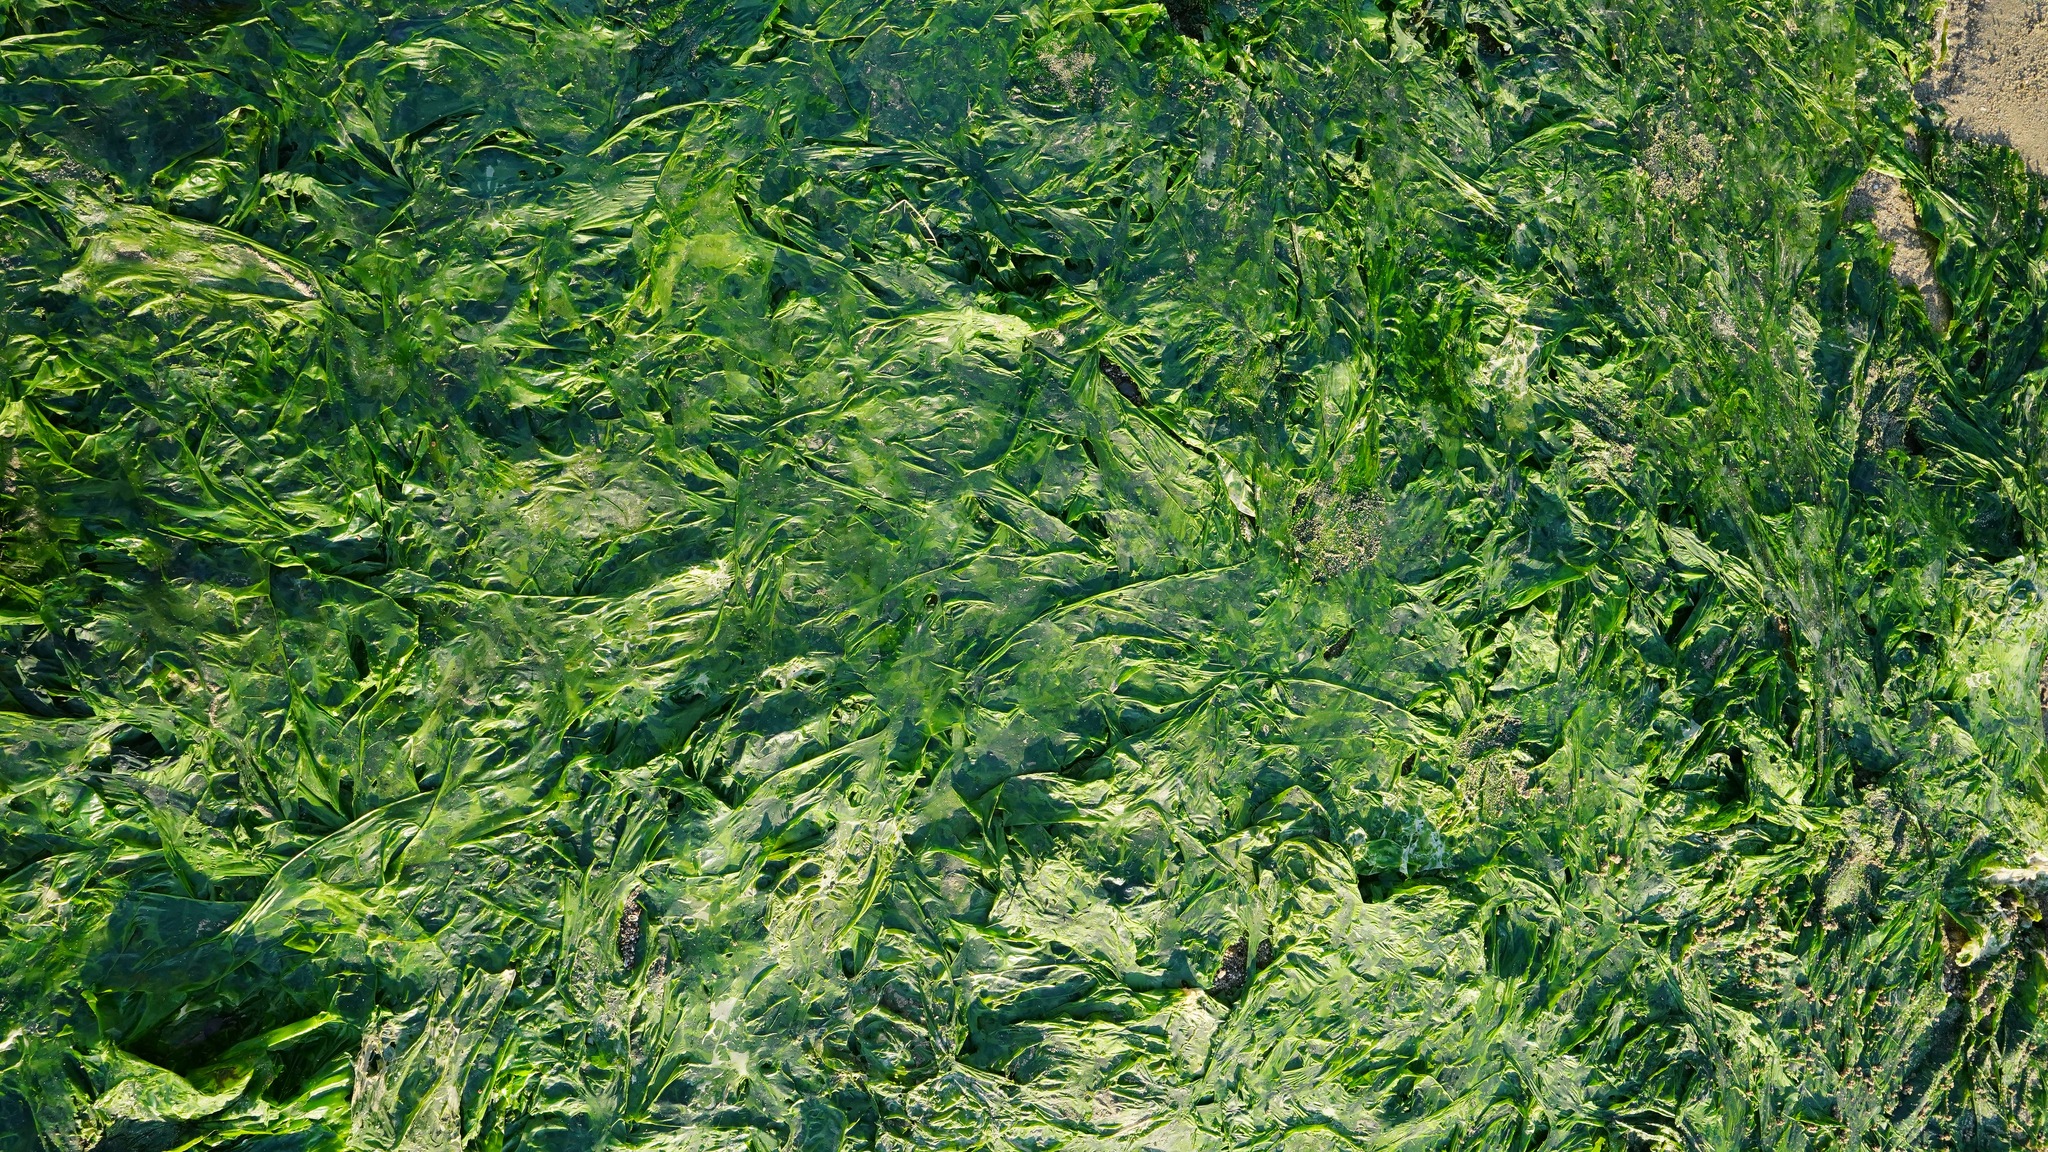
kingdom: Plantae
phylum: Chlorophyta
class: Ulvophyceae
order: Ulvales
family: Ulvaceae
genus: Ulva
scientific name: Ulva lactuca
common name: Sea lettuce
